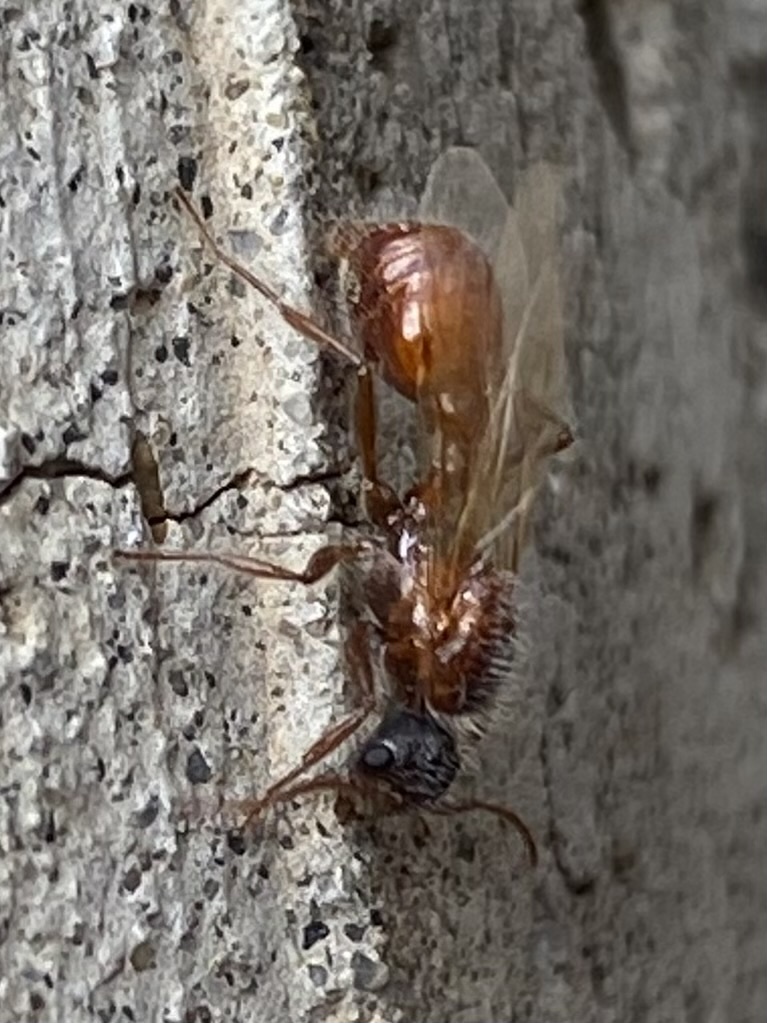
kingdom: Animalia
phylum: Arthropoda
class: Insecta
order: Hymenoptera
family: Formicidae
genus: Pogonomyrmex
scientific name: Pogonomyrmex
